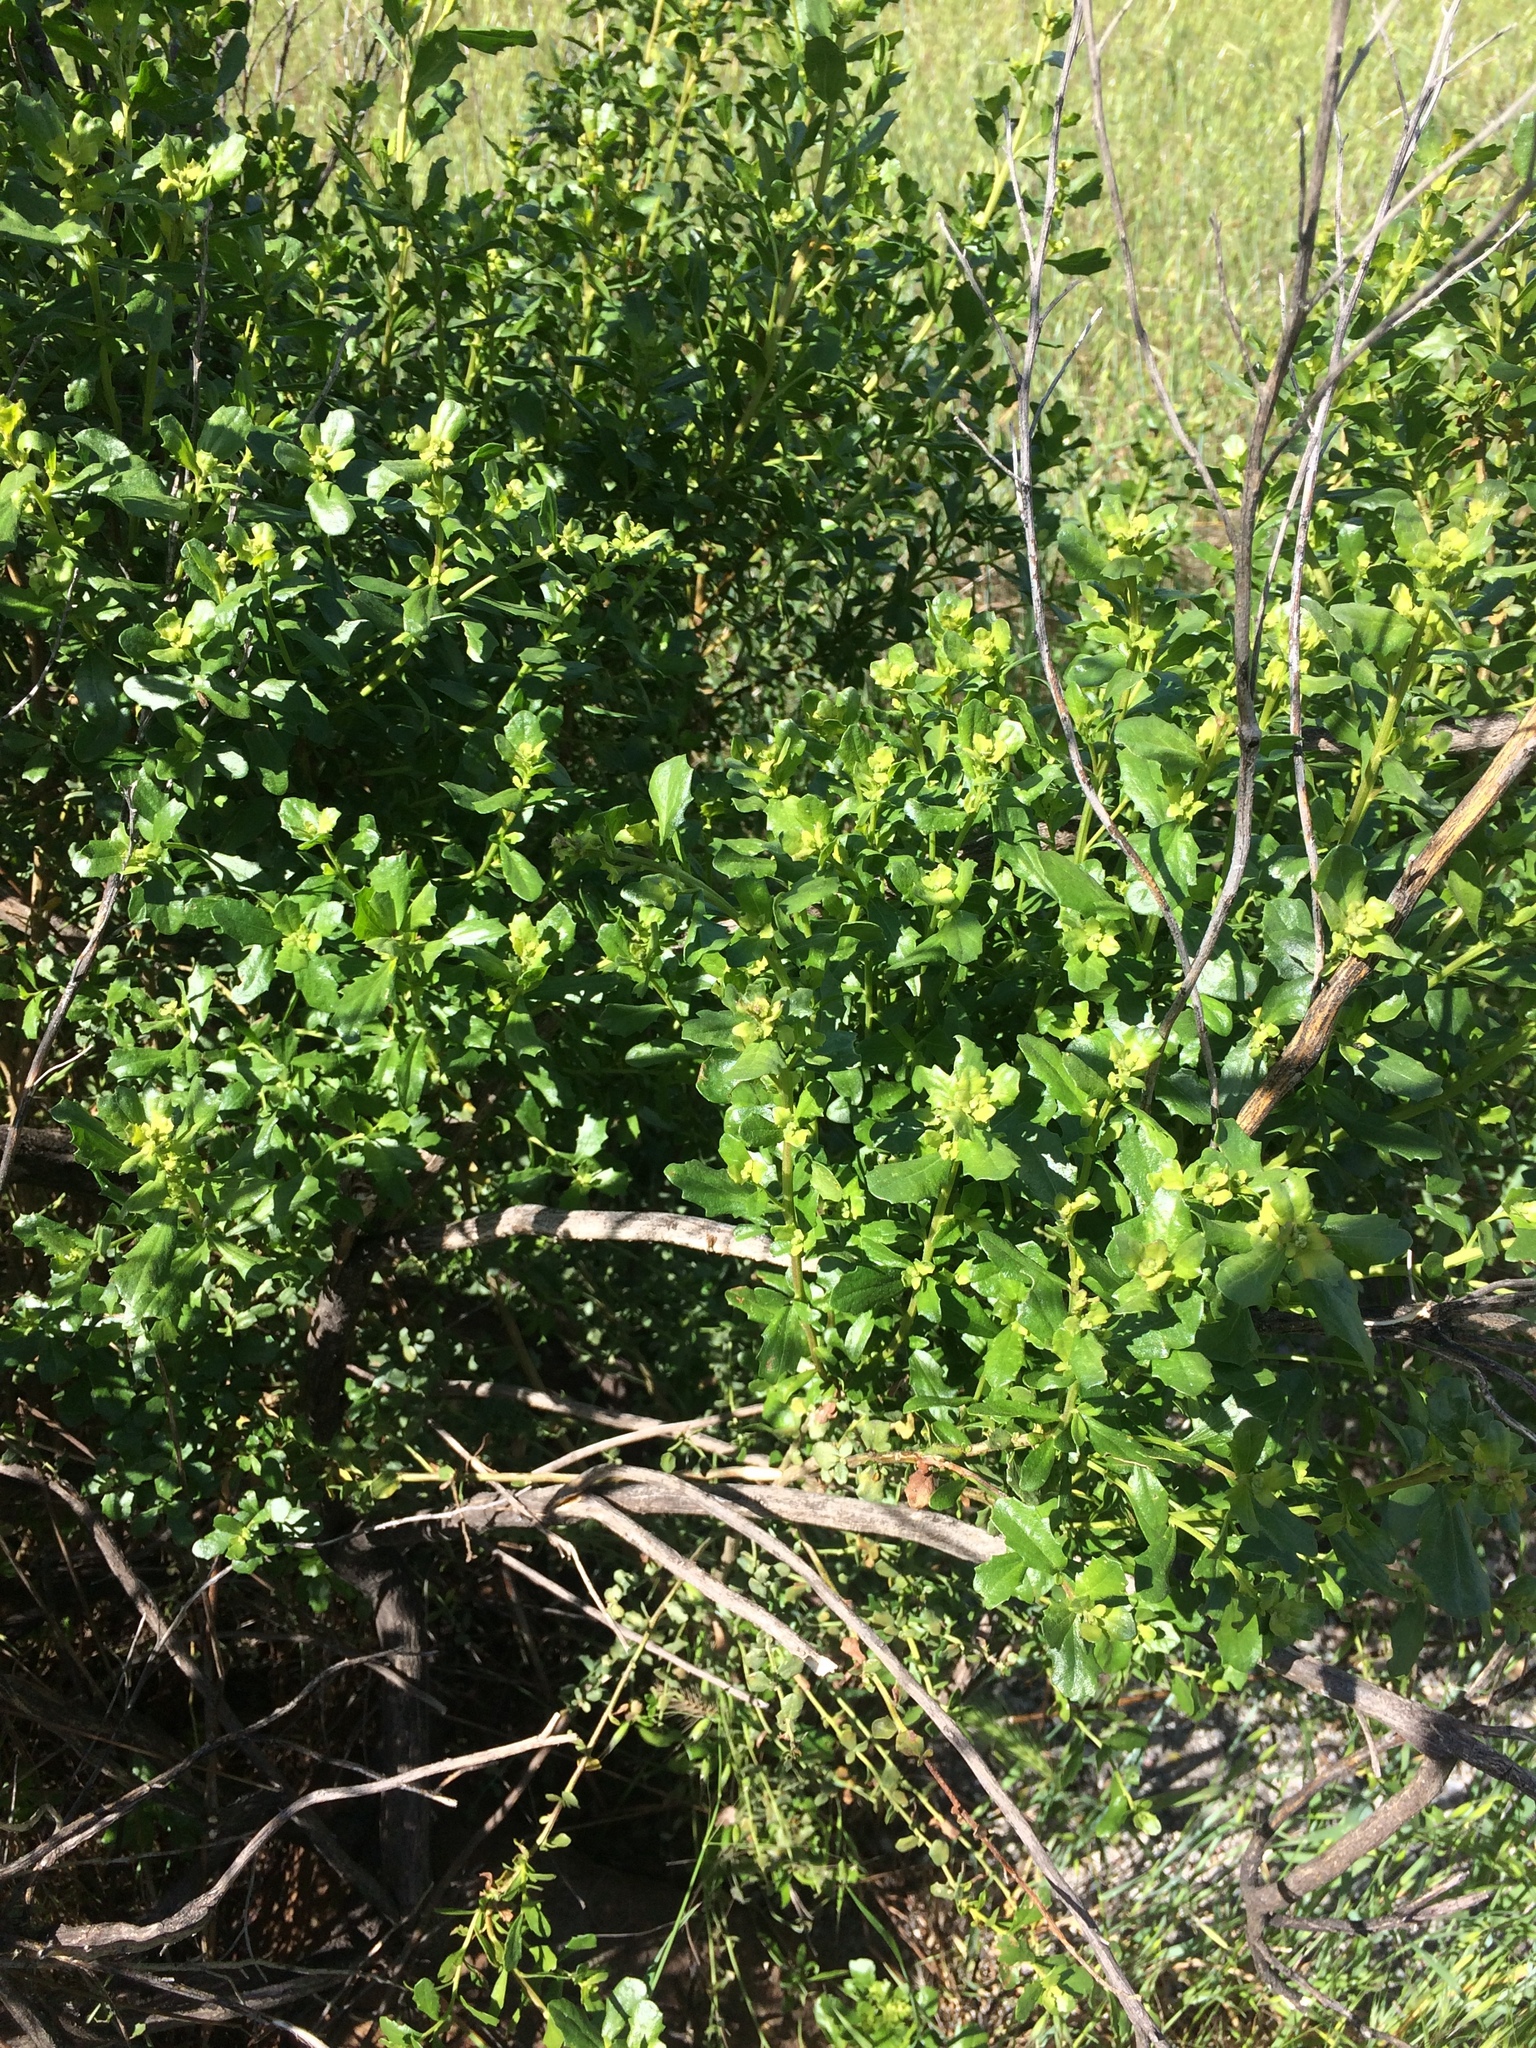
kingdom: Plantae
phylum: Tracheophyta
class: Magnoliopsida
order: Asterales
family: Asteraceae
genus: Baccharis
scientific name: Baccharis pilularis
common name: Coyotebrush
